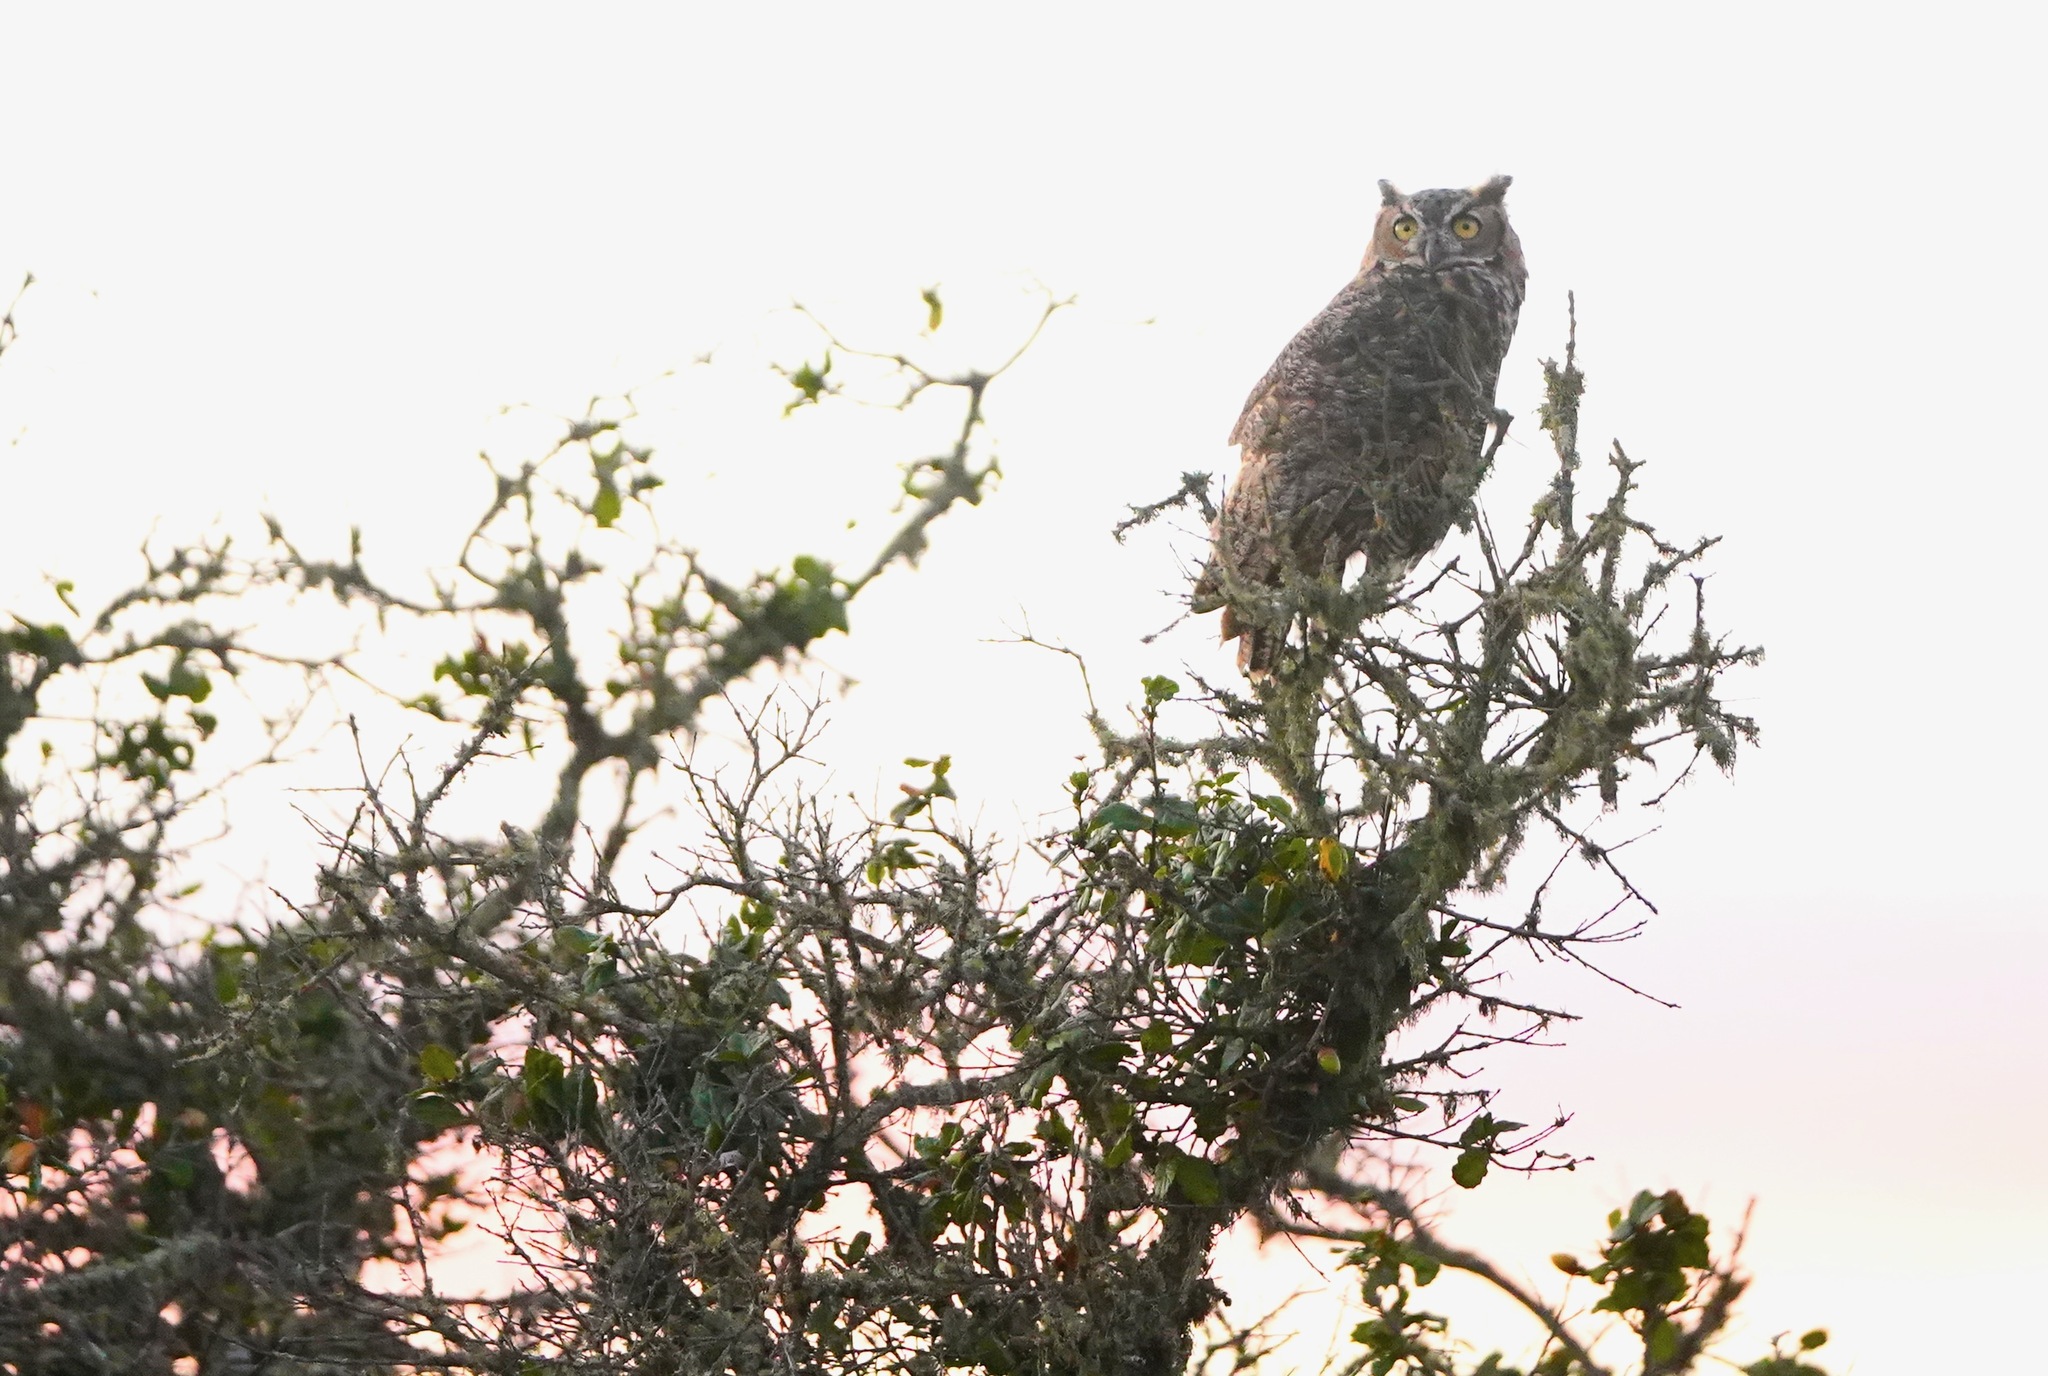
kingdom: Animalia
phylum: Chordata
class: Aves
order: Strigiformes
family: Strigidae
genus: Bubo
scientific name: Bubo virginianus
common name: Great horned owl
